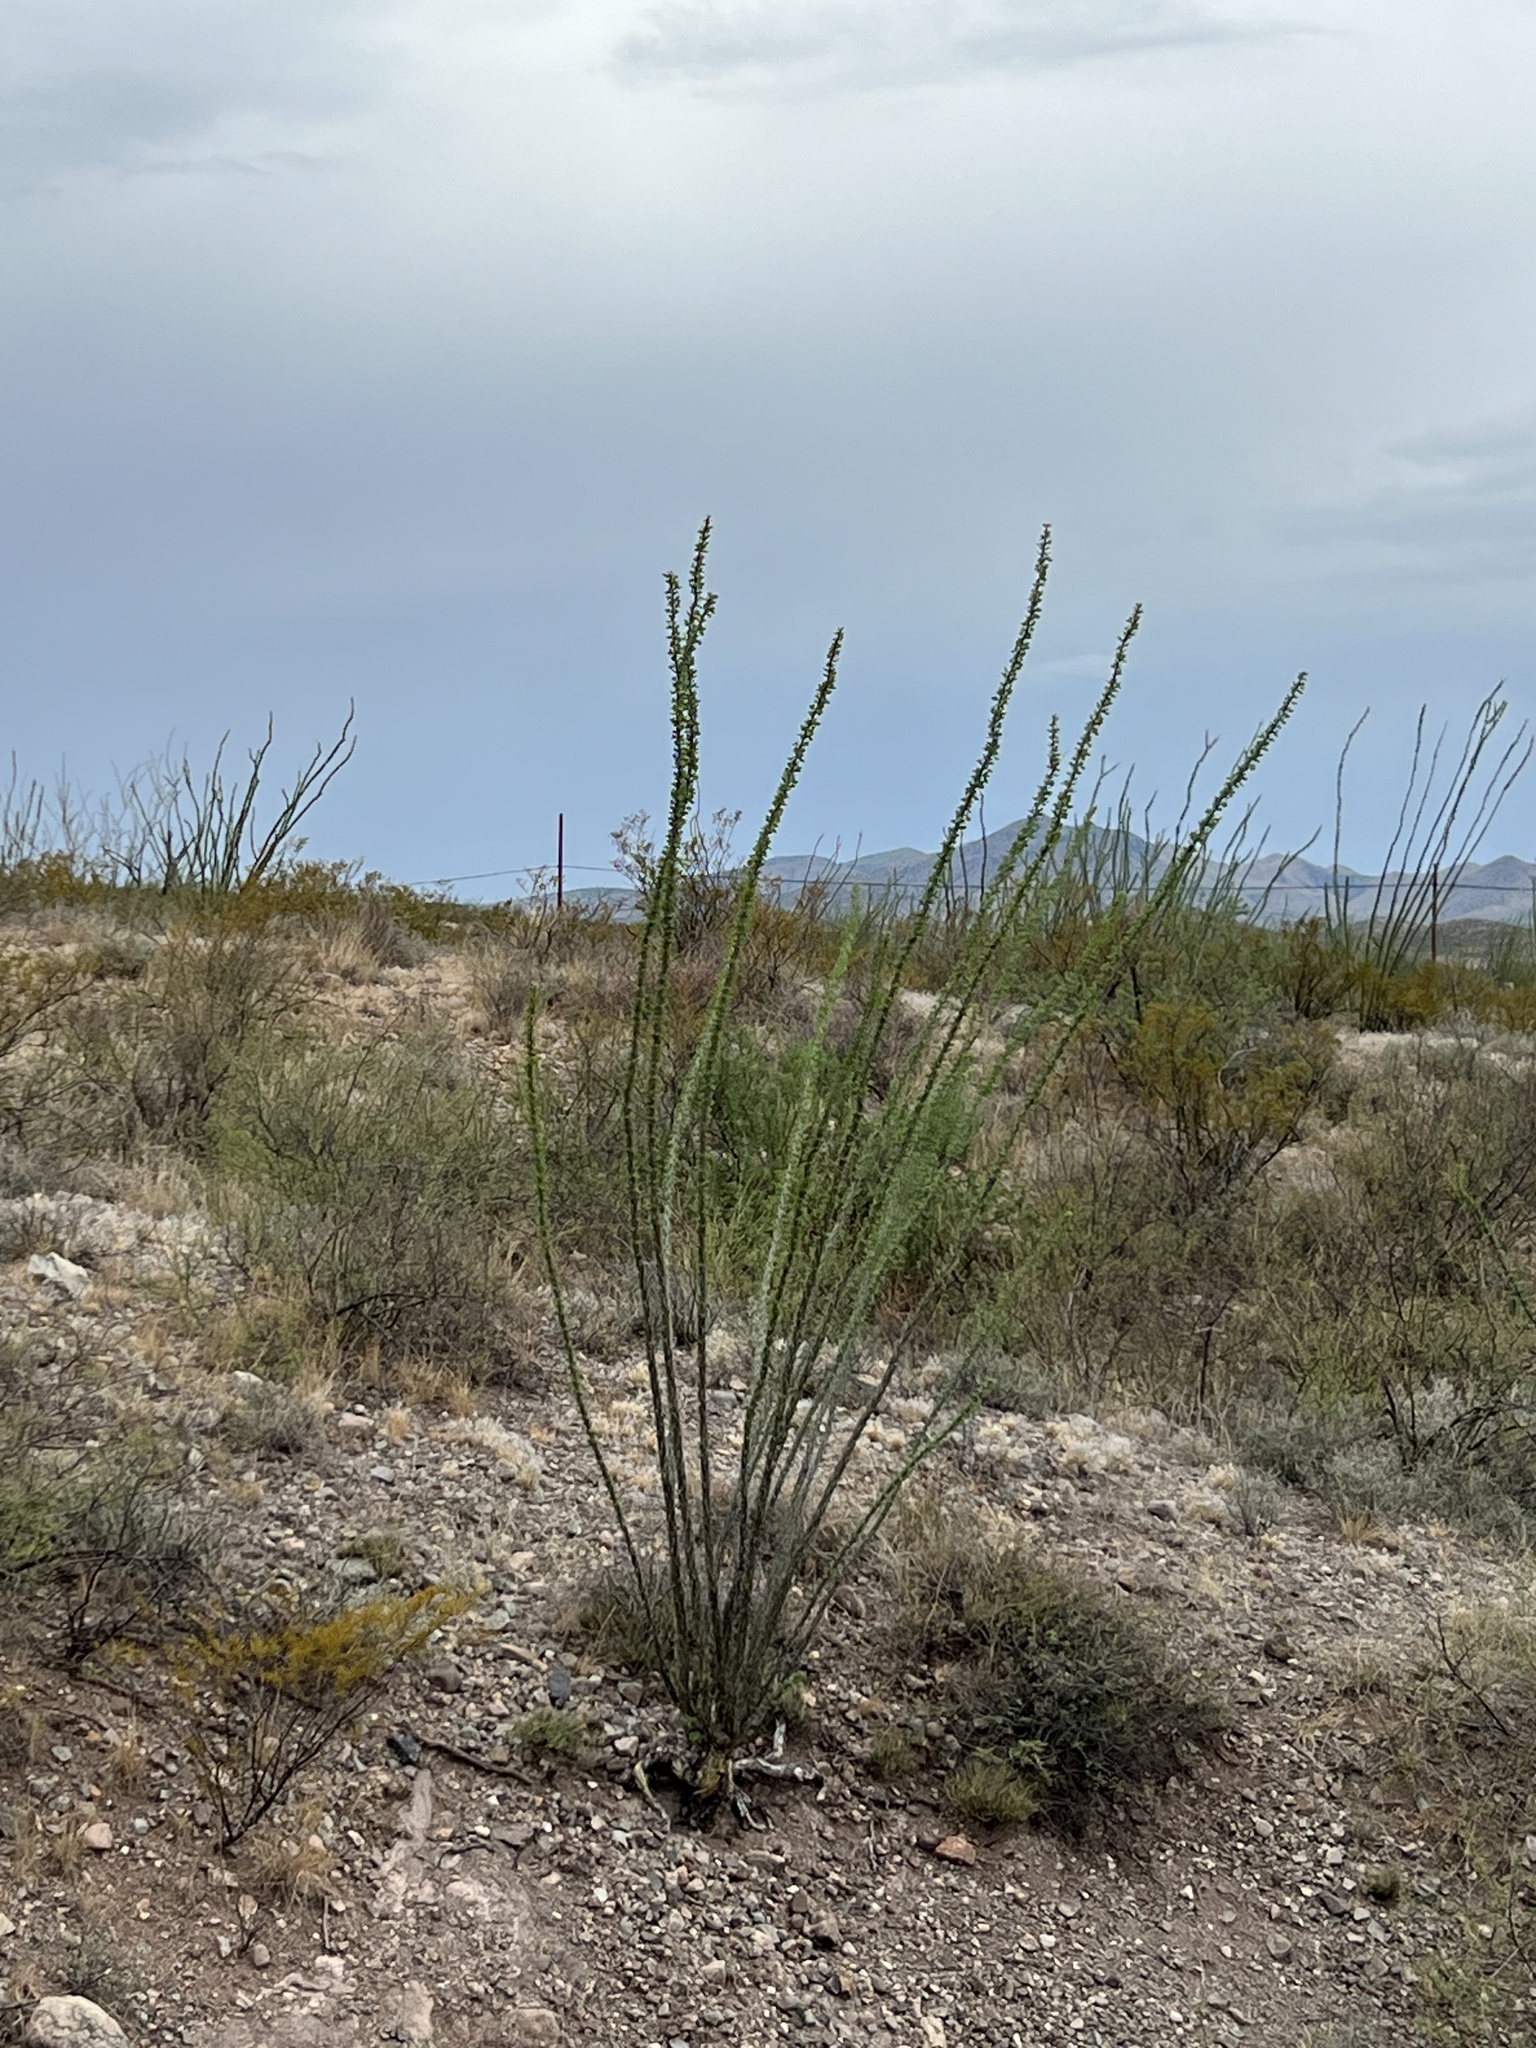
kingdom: Plantae
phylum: Tracheophyta
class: Magnoliopsida
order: Ericales
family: Fouquieriaceae
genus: Fouquieria
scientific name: Fouquieria splendens
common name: Vine-cactus
